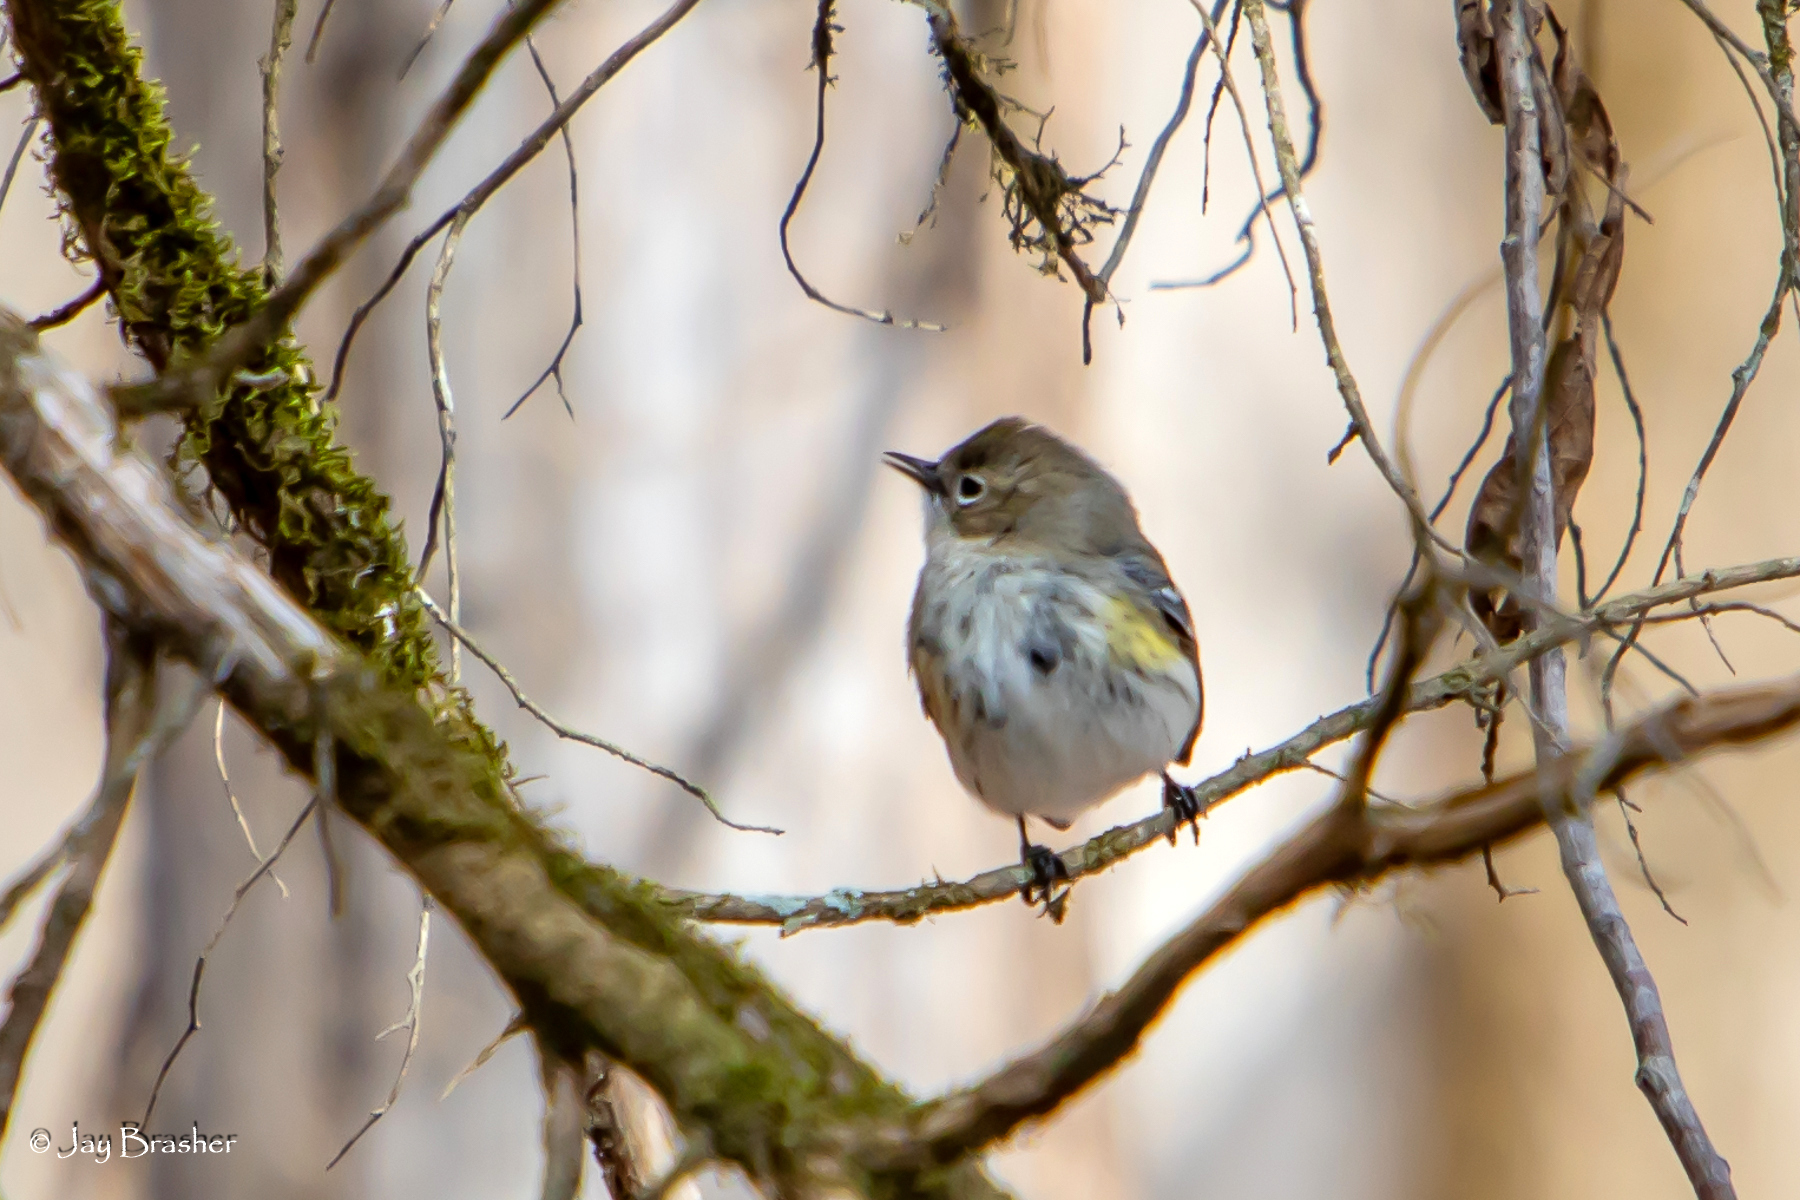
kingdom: Animalia
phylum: Chordata
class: Aves
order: Passeriformes
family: Parulidae
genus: Setophaga
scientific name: Setophaga coronata
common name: Myrtle warbler
